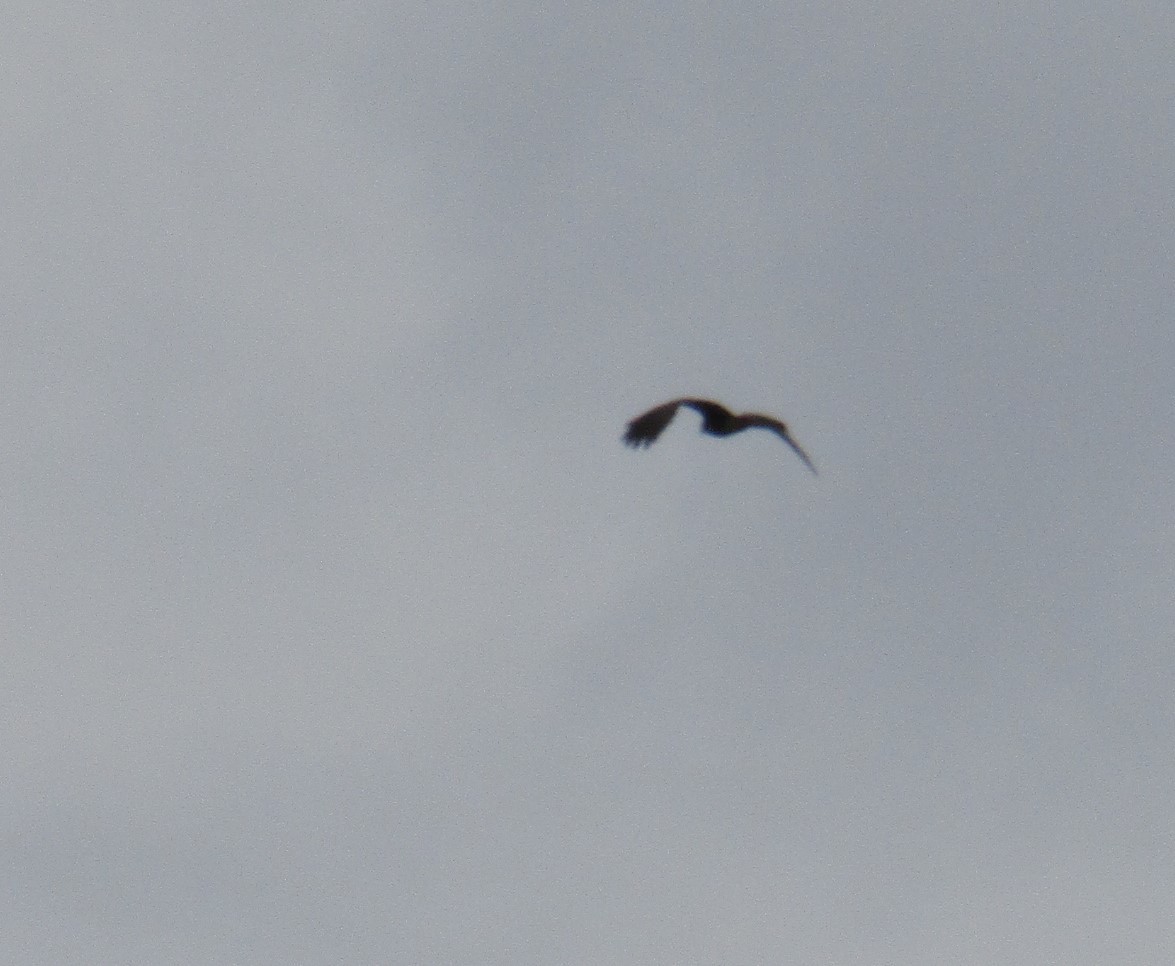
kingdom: Animalia
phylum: Chordata
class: Aves
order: Accipitriformes
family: Accipitridae
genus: Parabuteo
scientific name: Parabuteo unicinctus
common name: Harris's hawk
